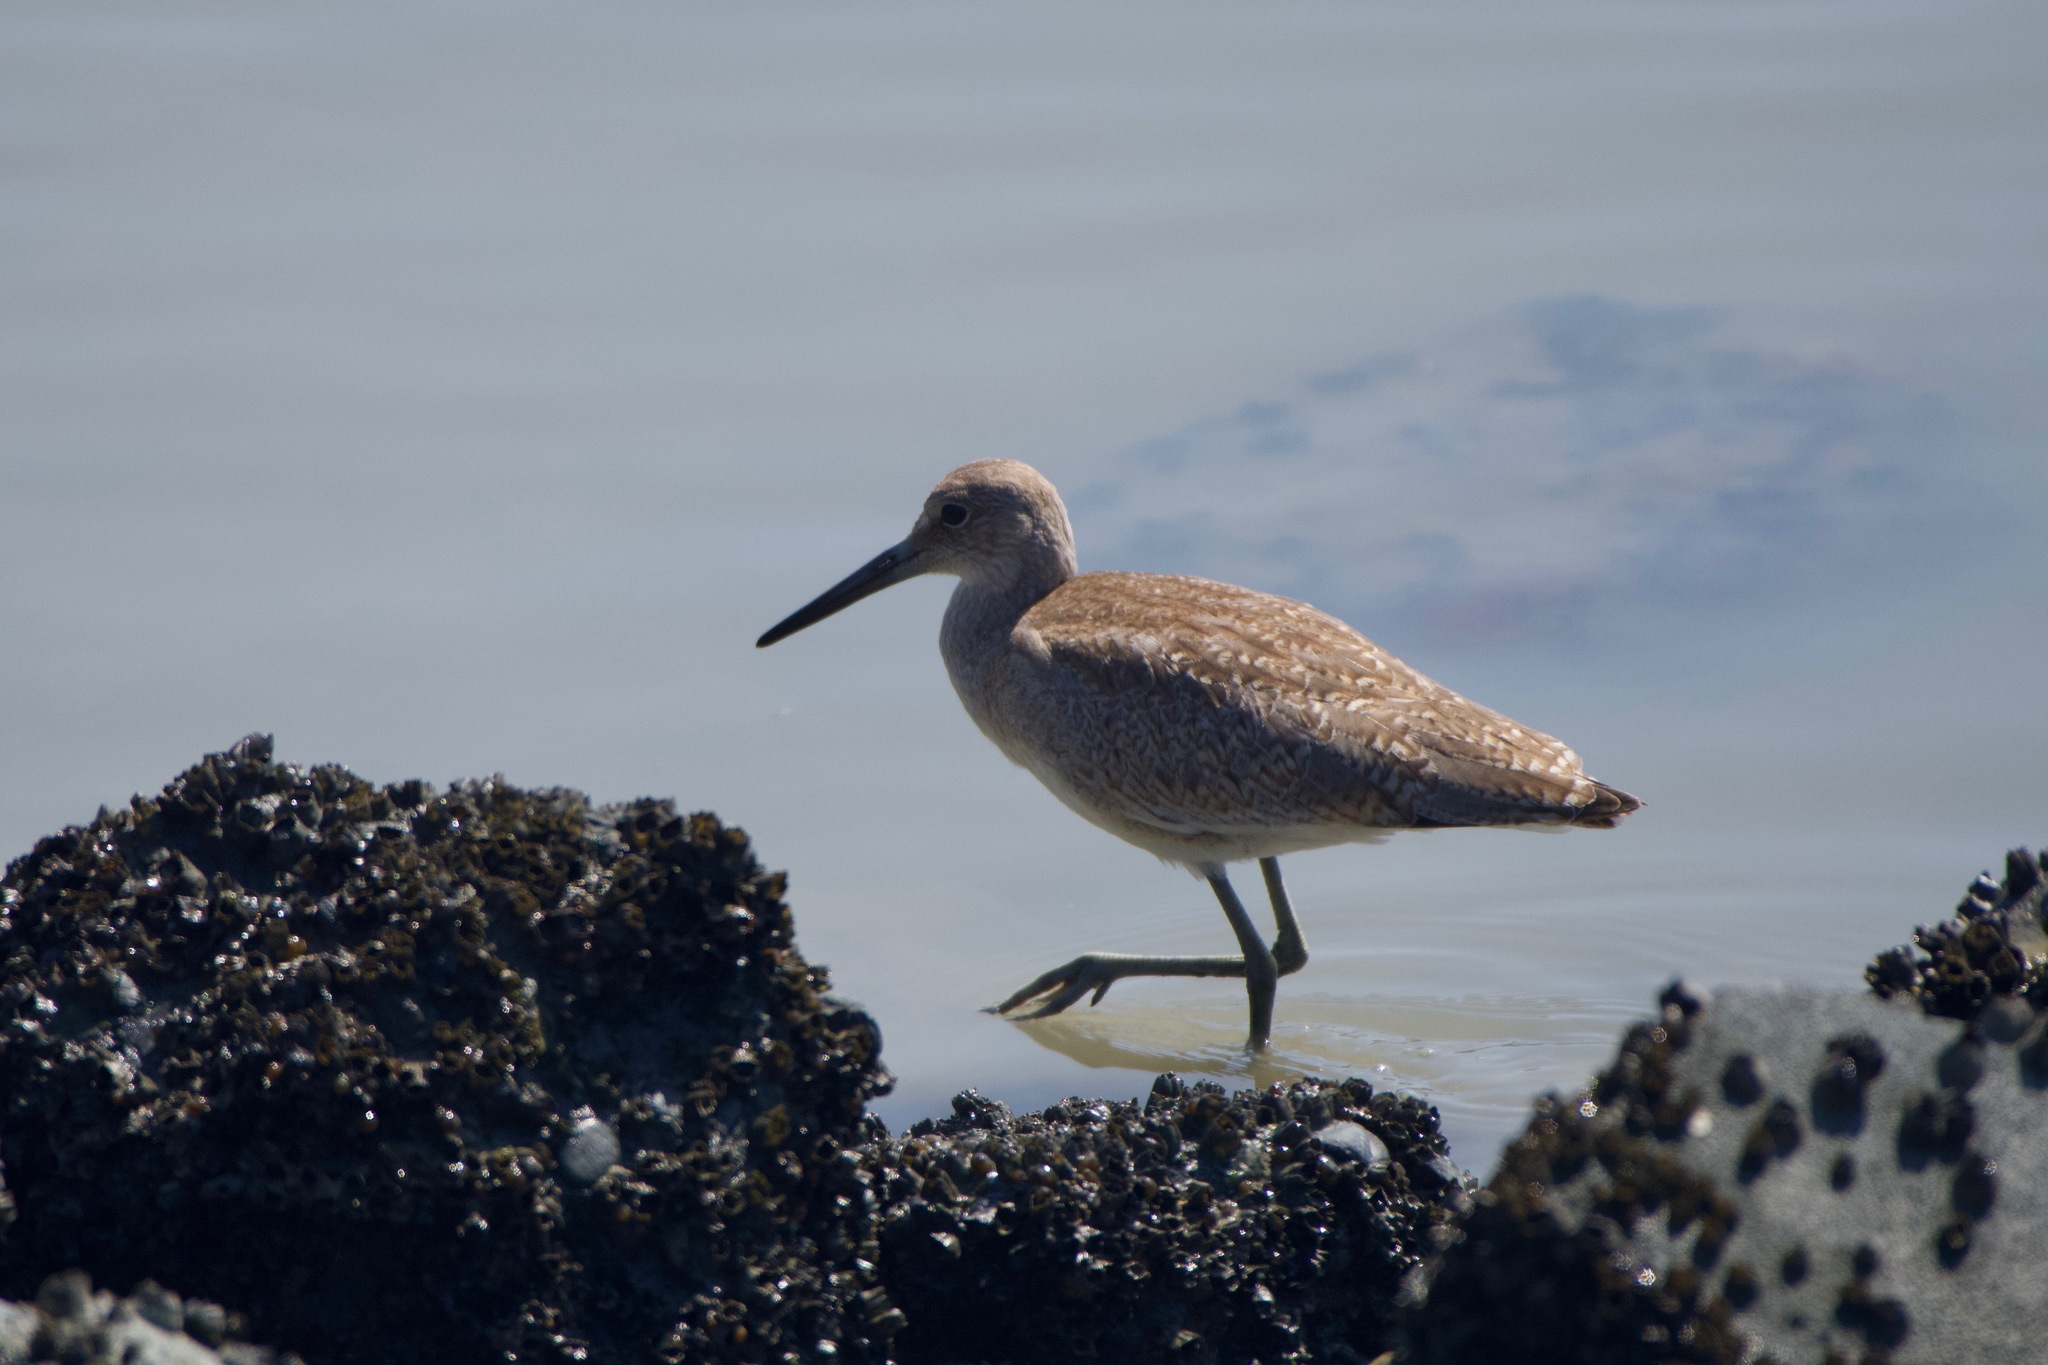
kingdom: Animalia
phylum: Chordata
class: Aves
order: Charadriiformes
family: Scolopacidae
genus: Tringa
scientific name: Tringa semipalmata
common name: Willet
